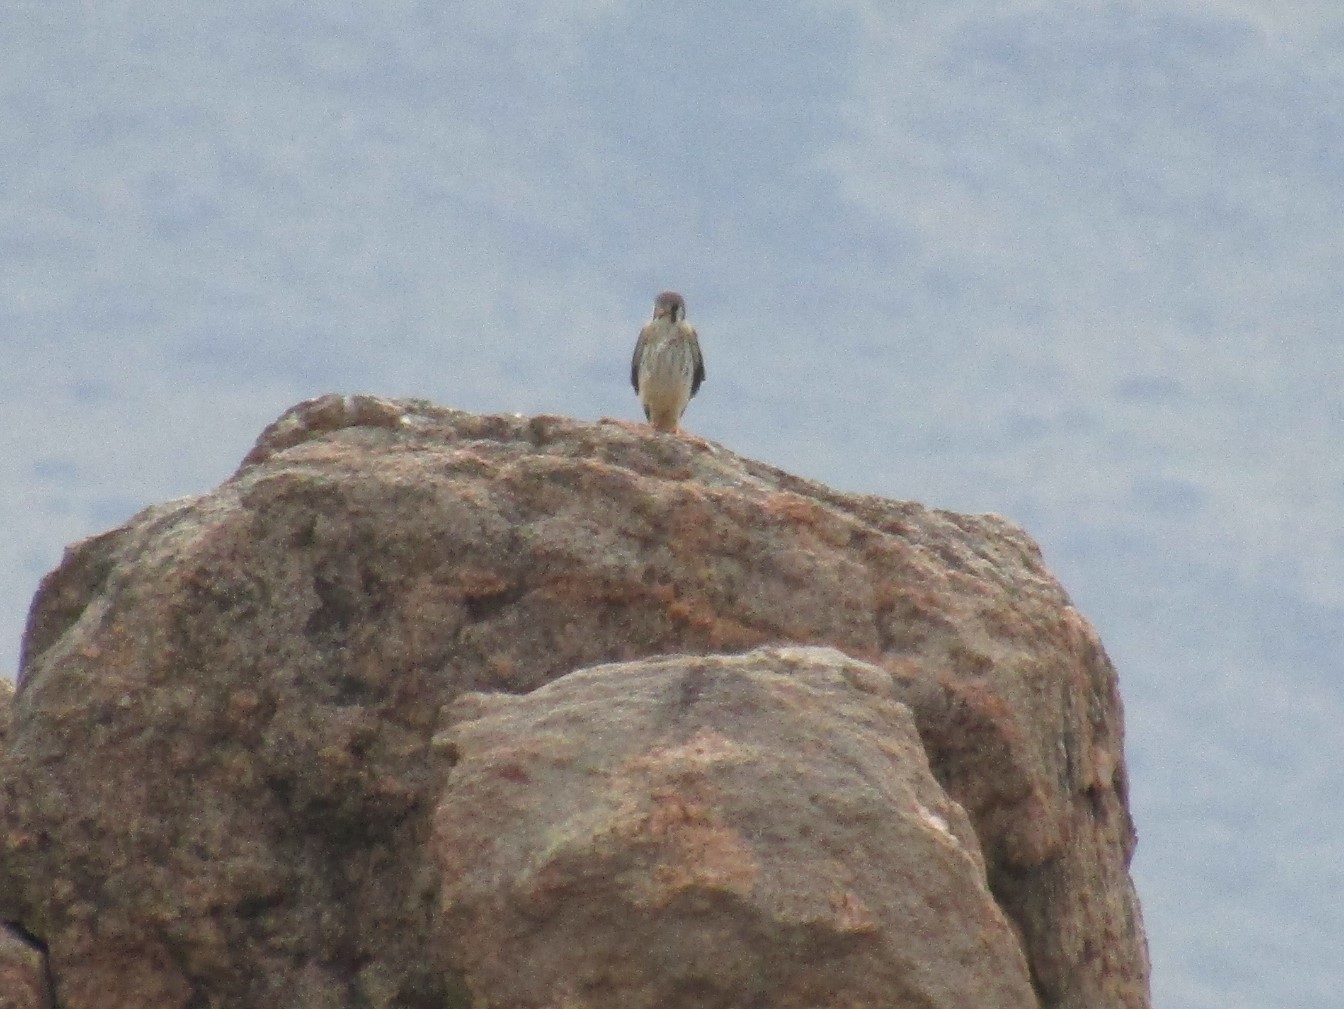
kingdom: Animalia
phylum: Chordata
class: Aves
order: Falconiformes
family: Falconidae
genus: Falco
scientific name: Falco sparverius
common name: American kestrel
